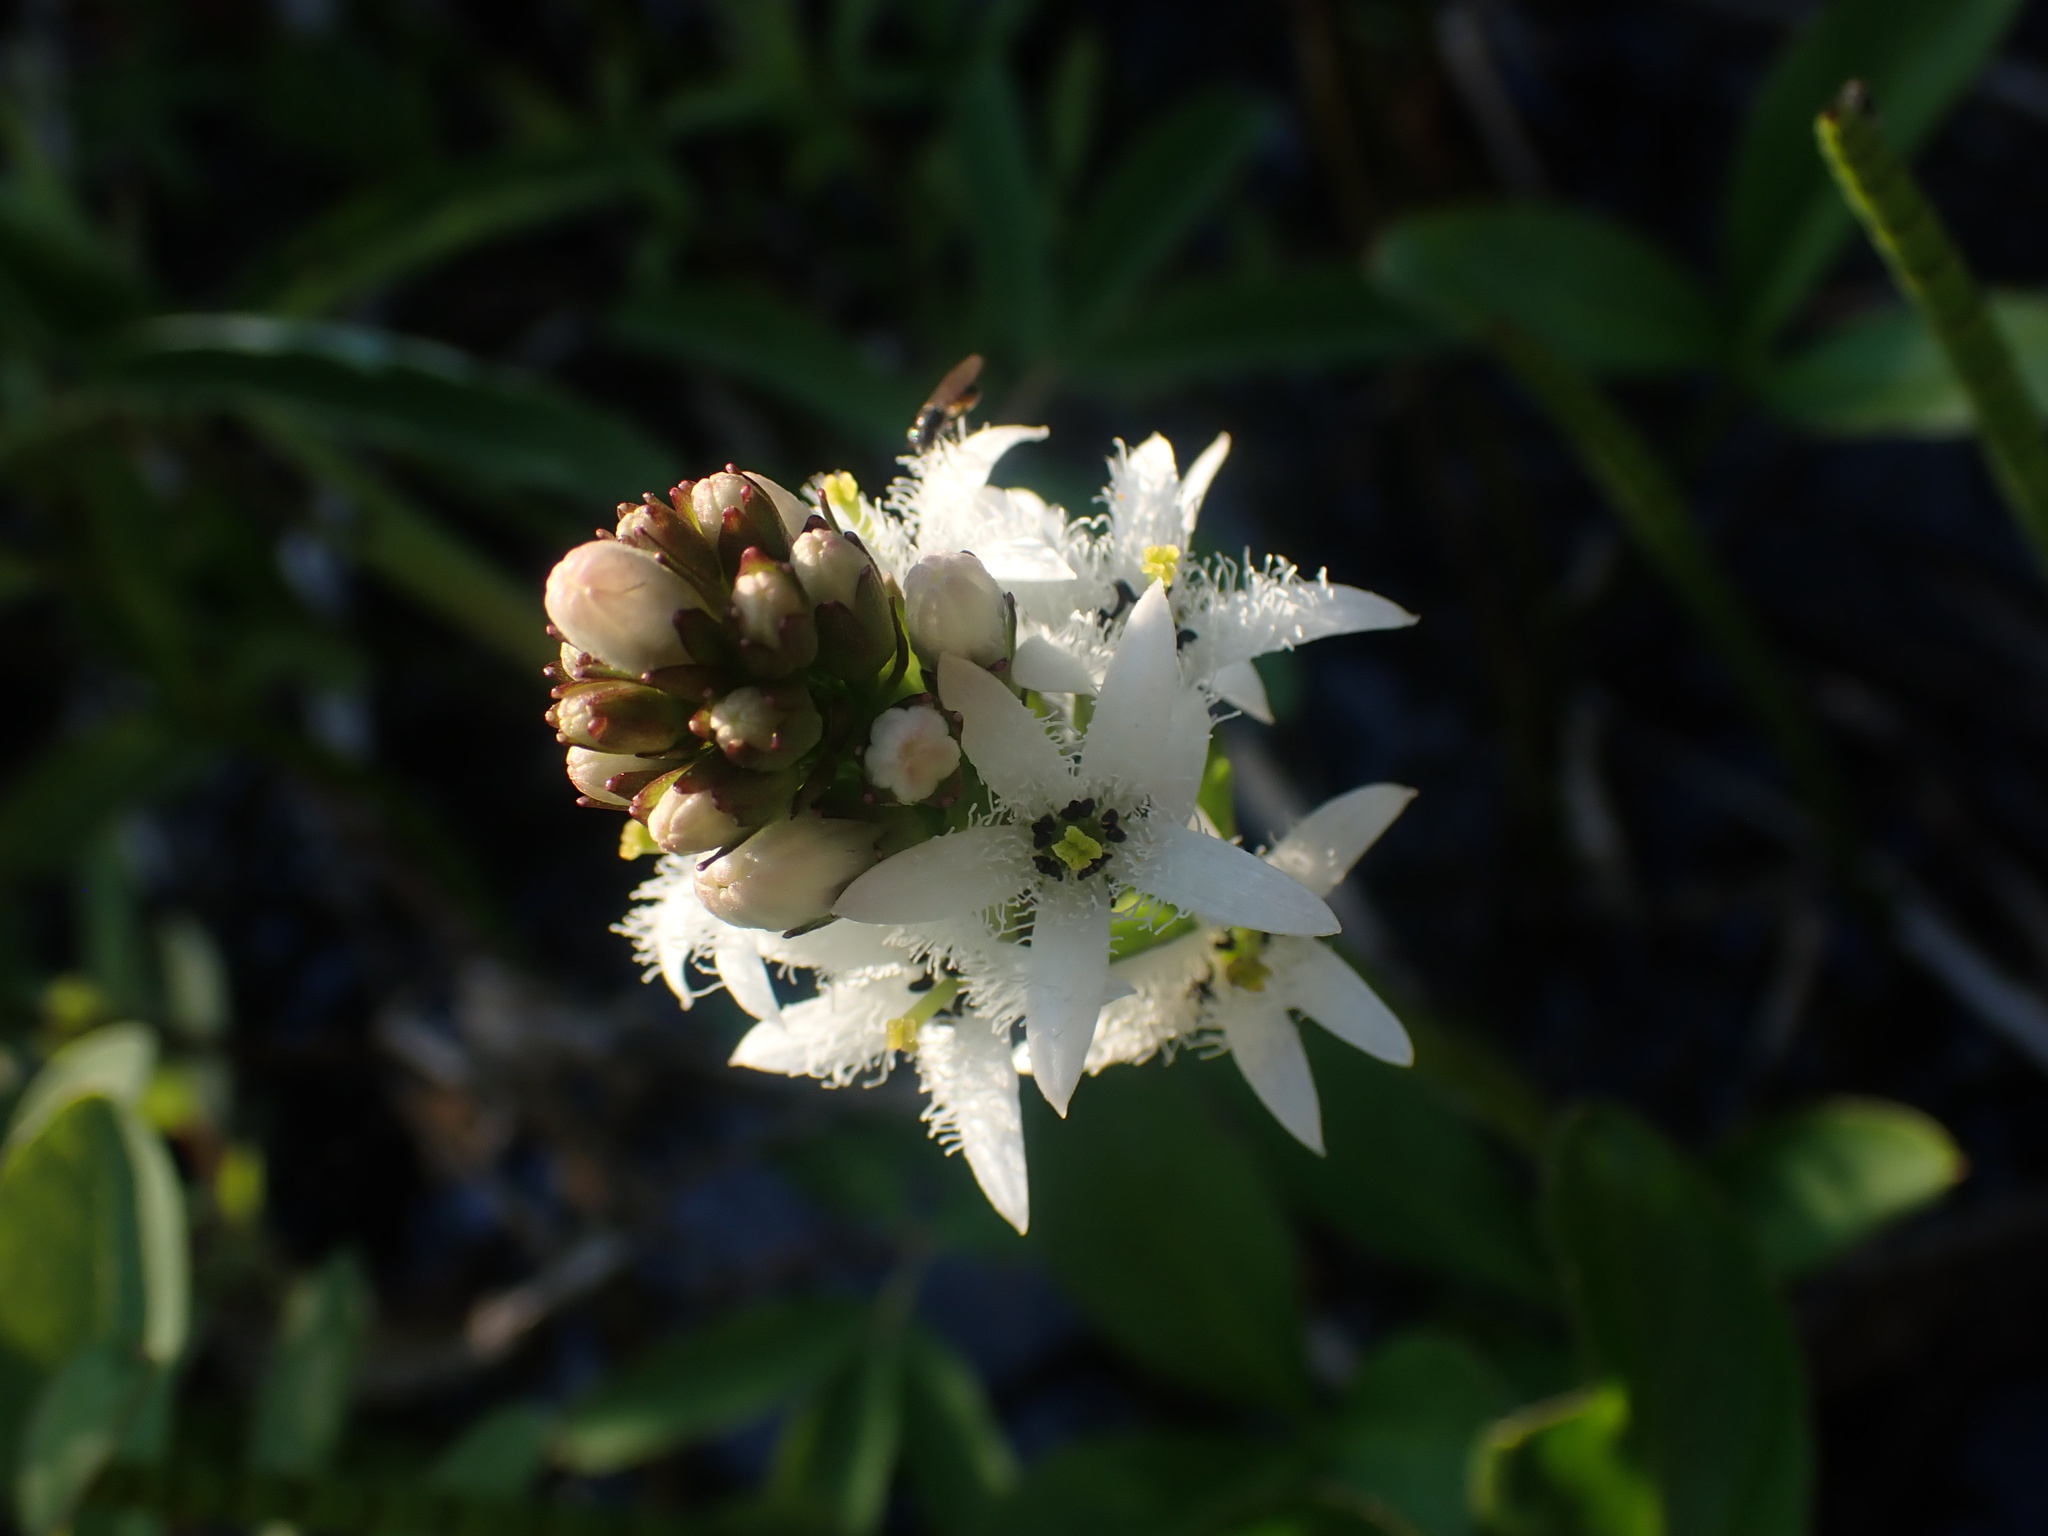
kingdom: Plantae
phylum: Tracheophyta
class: Magnoliopsida
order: Asterales
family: Menyanthaceae
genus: Menyanthes
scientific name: Menyanthes trifoliata
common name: Bogbean
